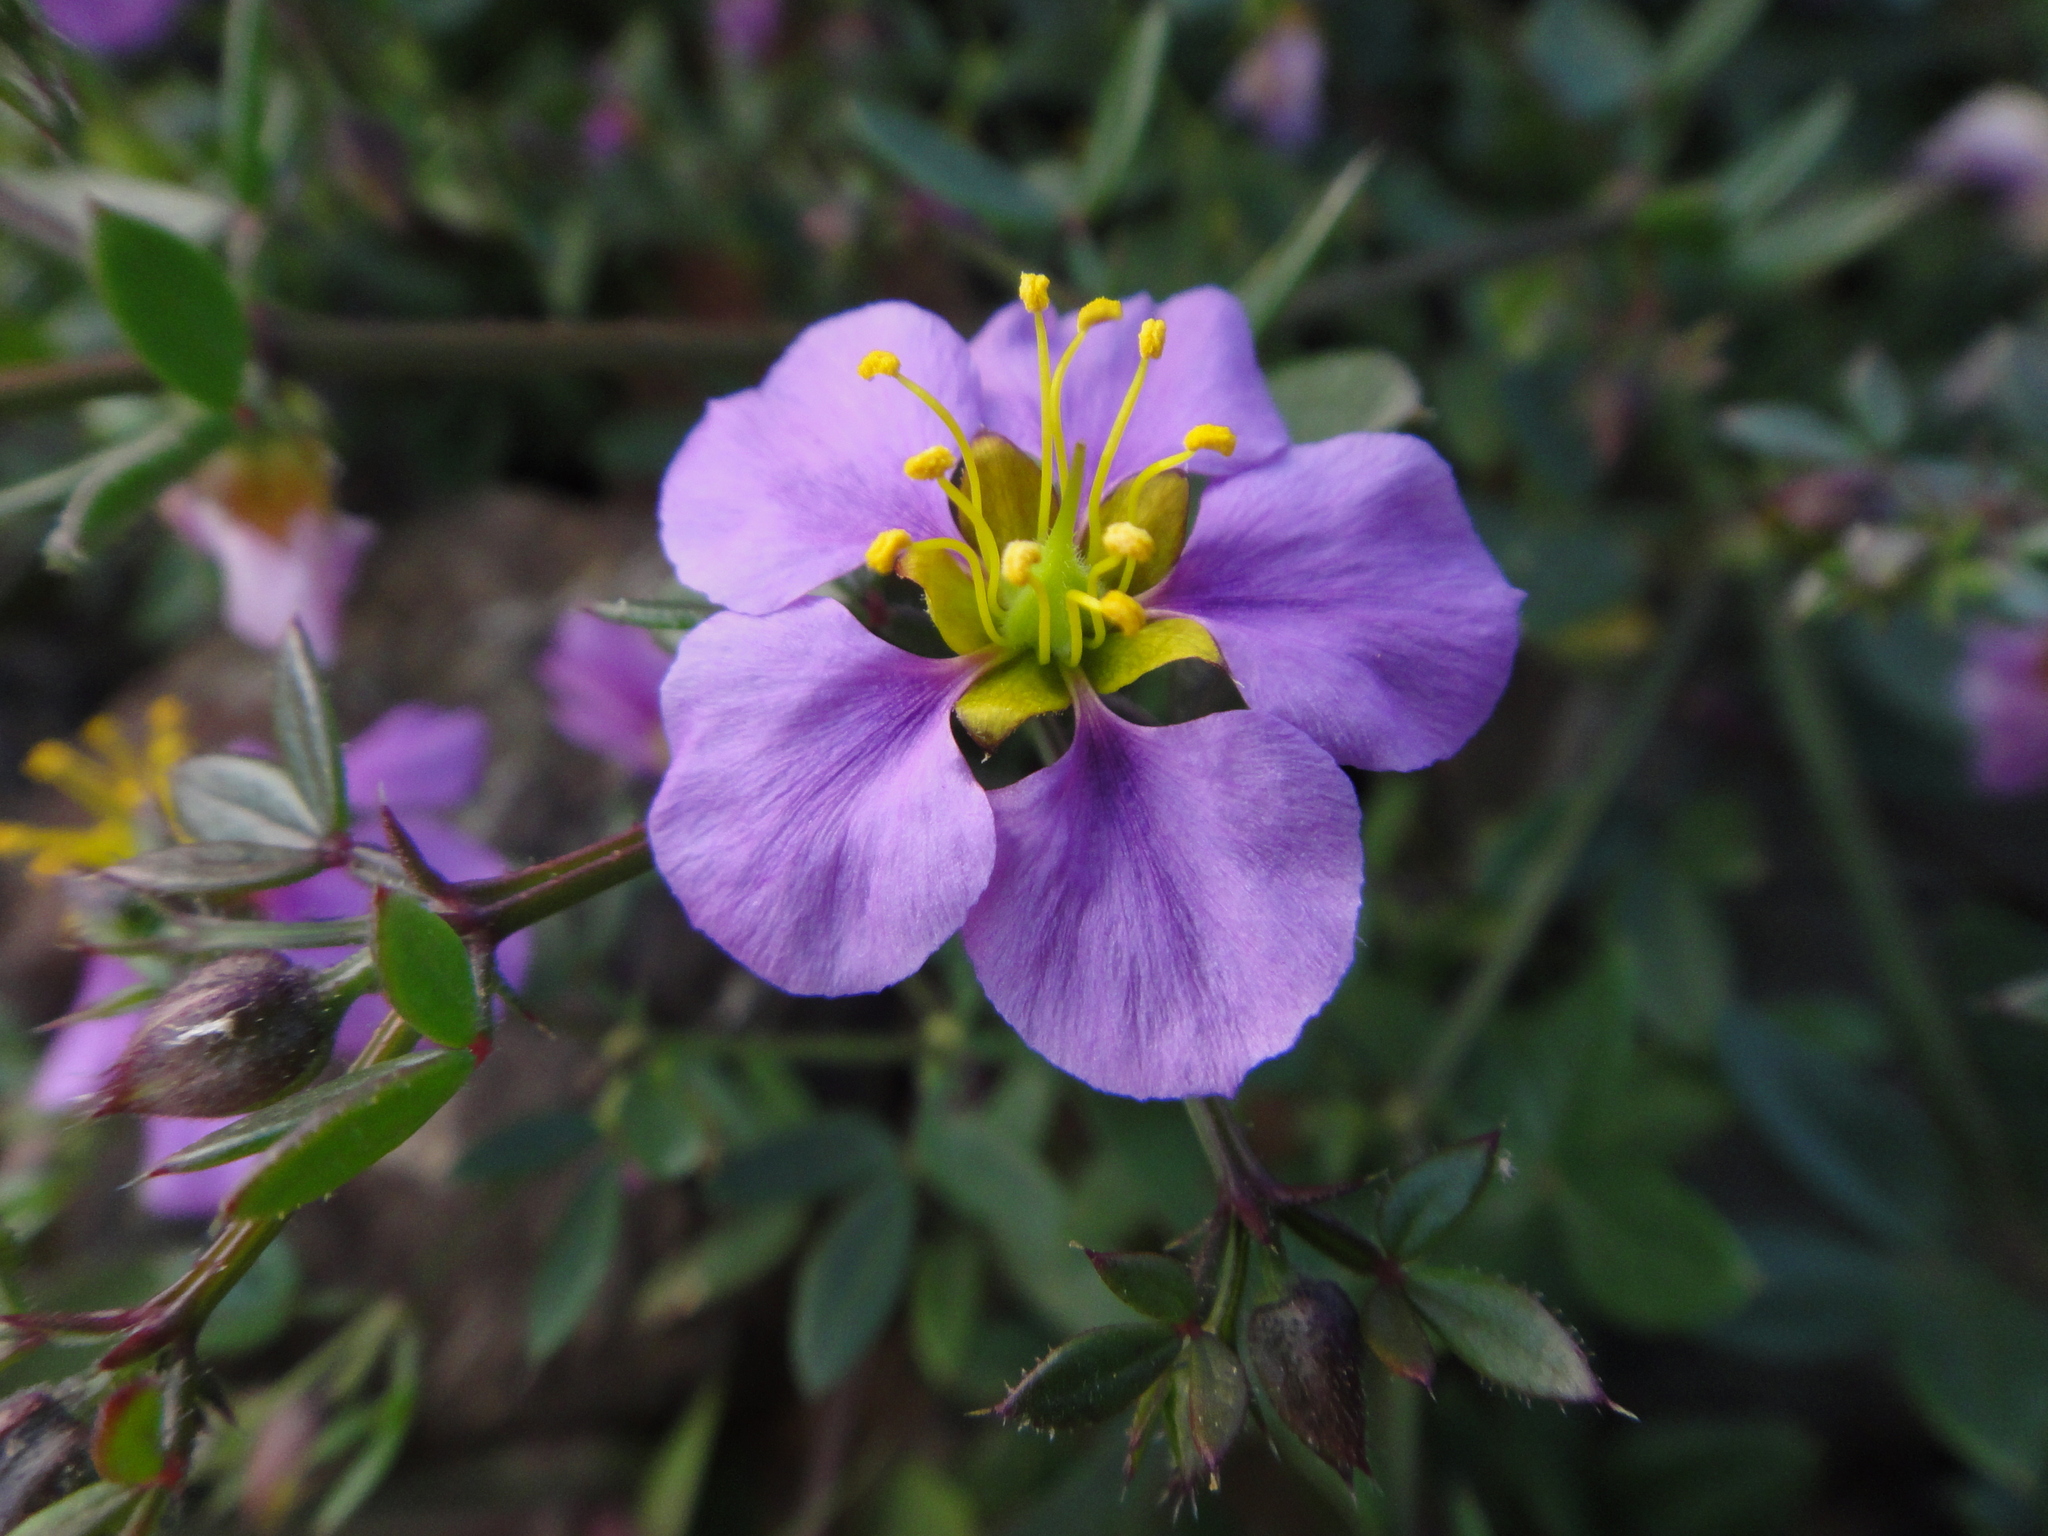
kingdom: Plantae
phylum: Tracheophyta
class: Magnoliopsida
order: Zygophyllales
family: Zygophyllaceae
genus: Fagonia
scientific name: Fagonia cretica
